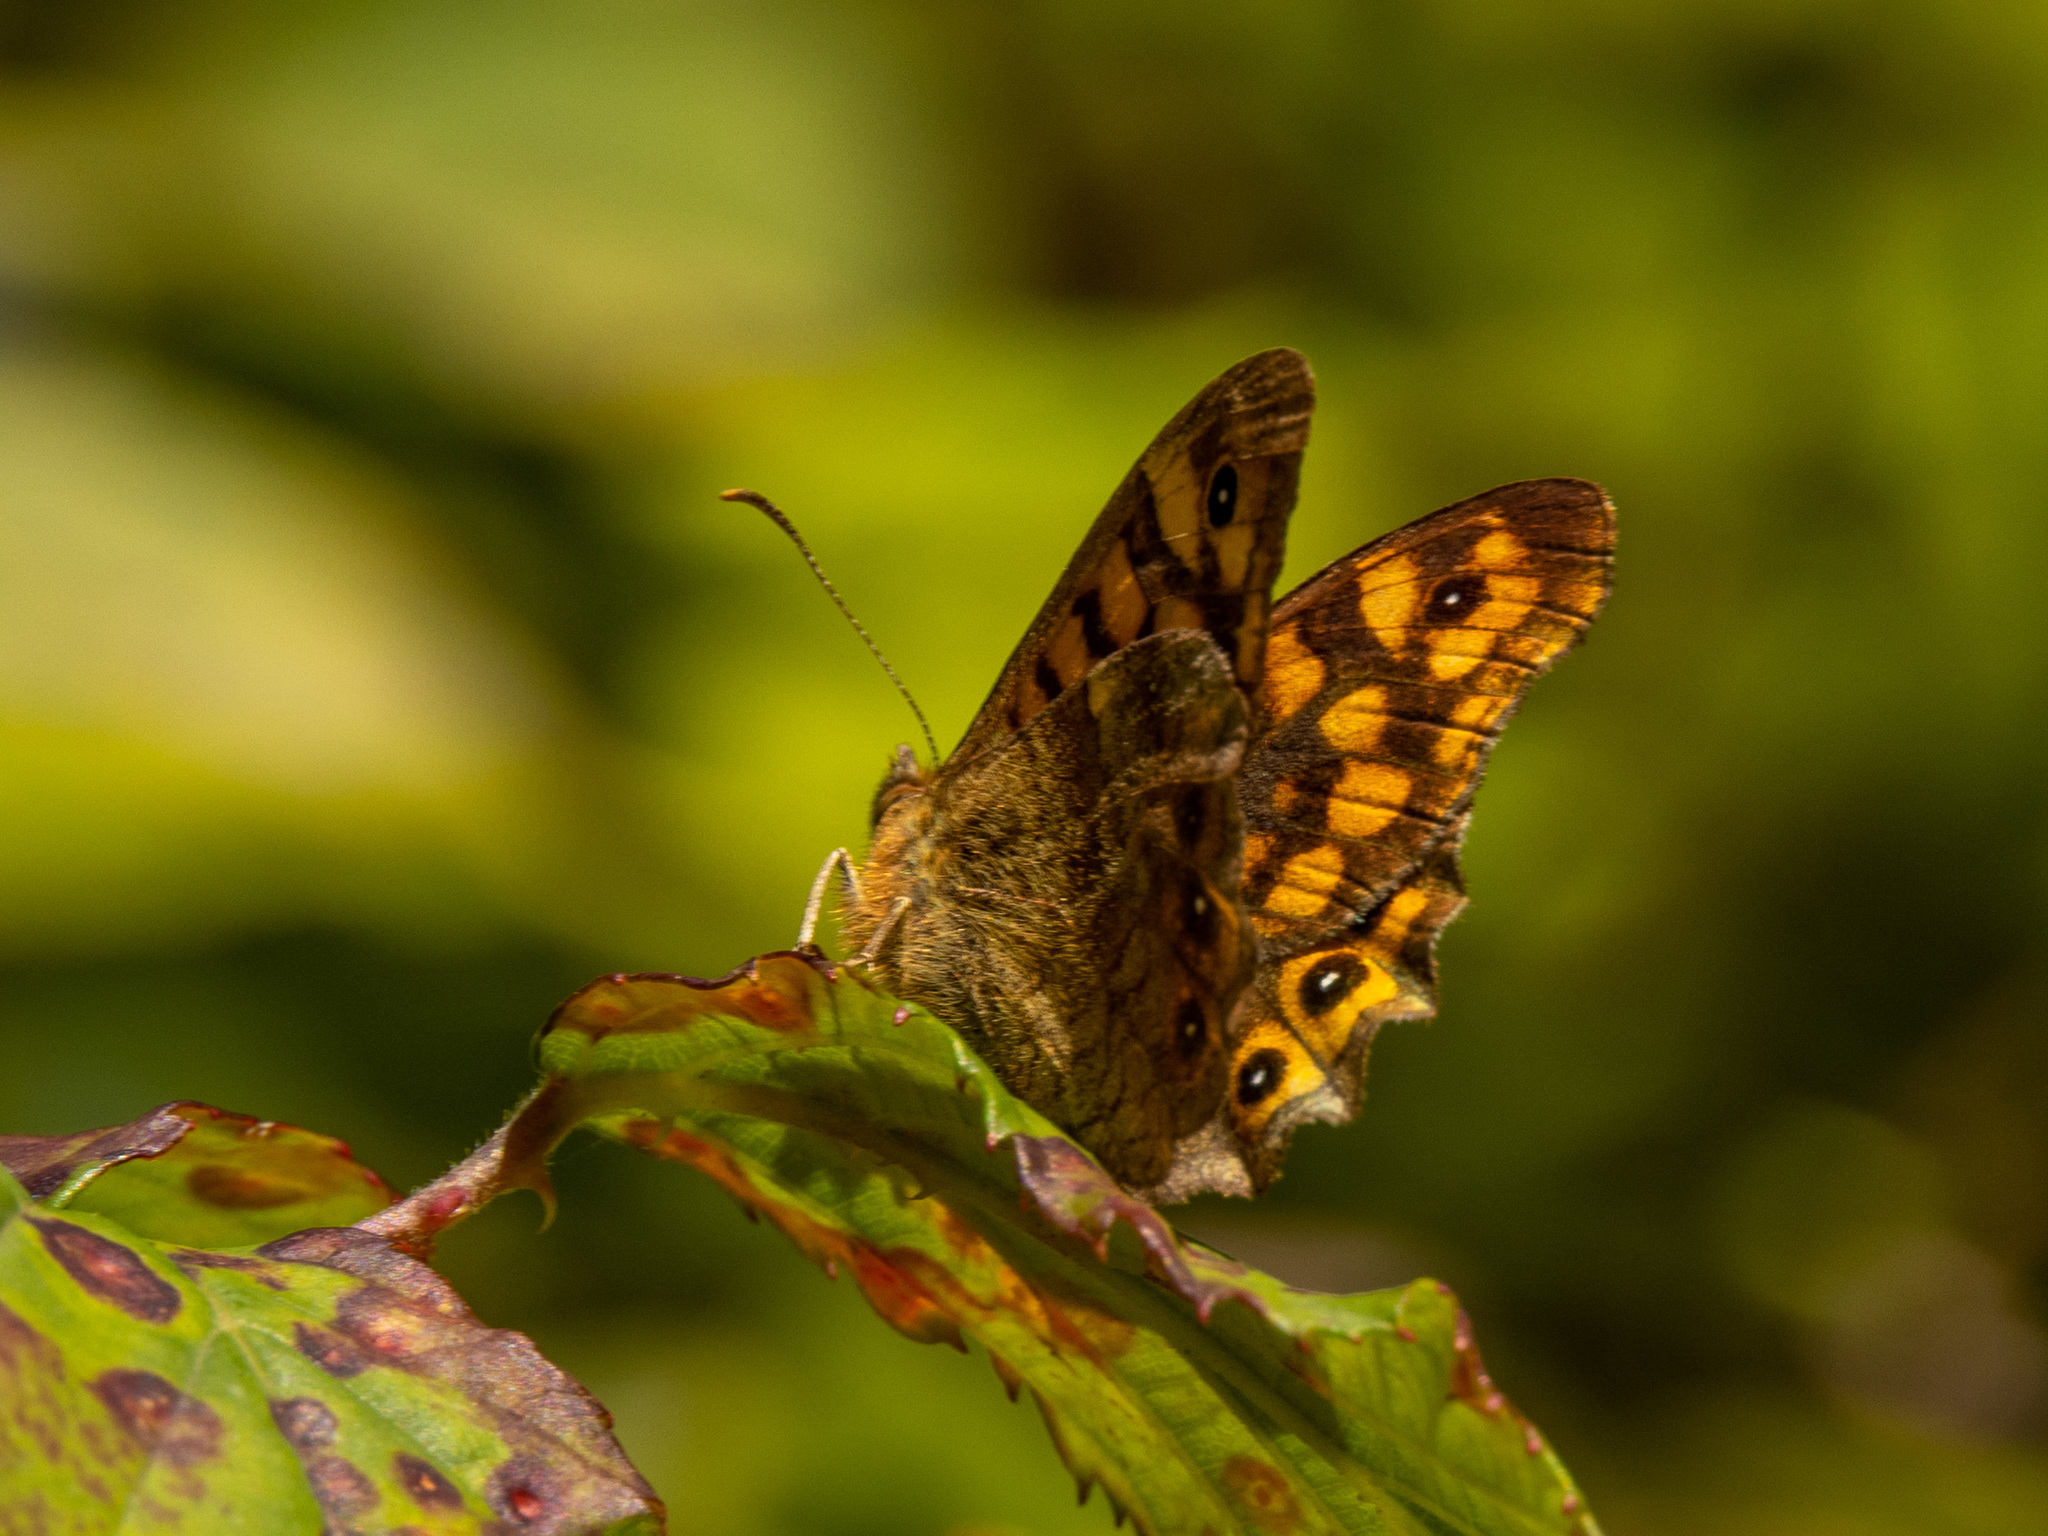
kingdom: Animalia
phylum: Arthropoda
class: Insecta
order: Lepidoptera
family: Nymphalidae
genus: Pararge
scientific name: Pararge aegeria
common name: Speckled wood
